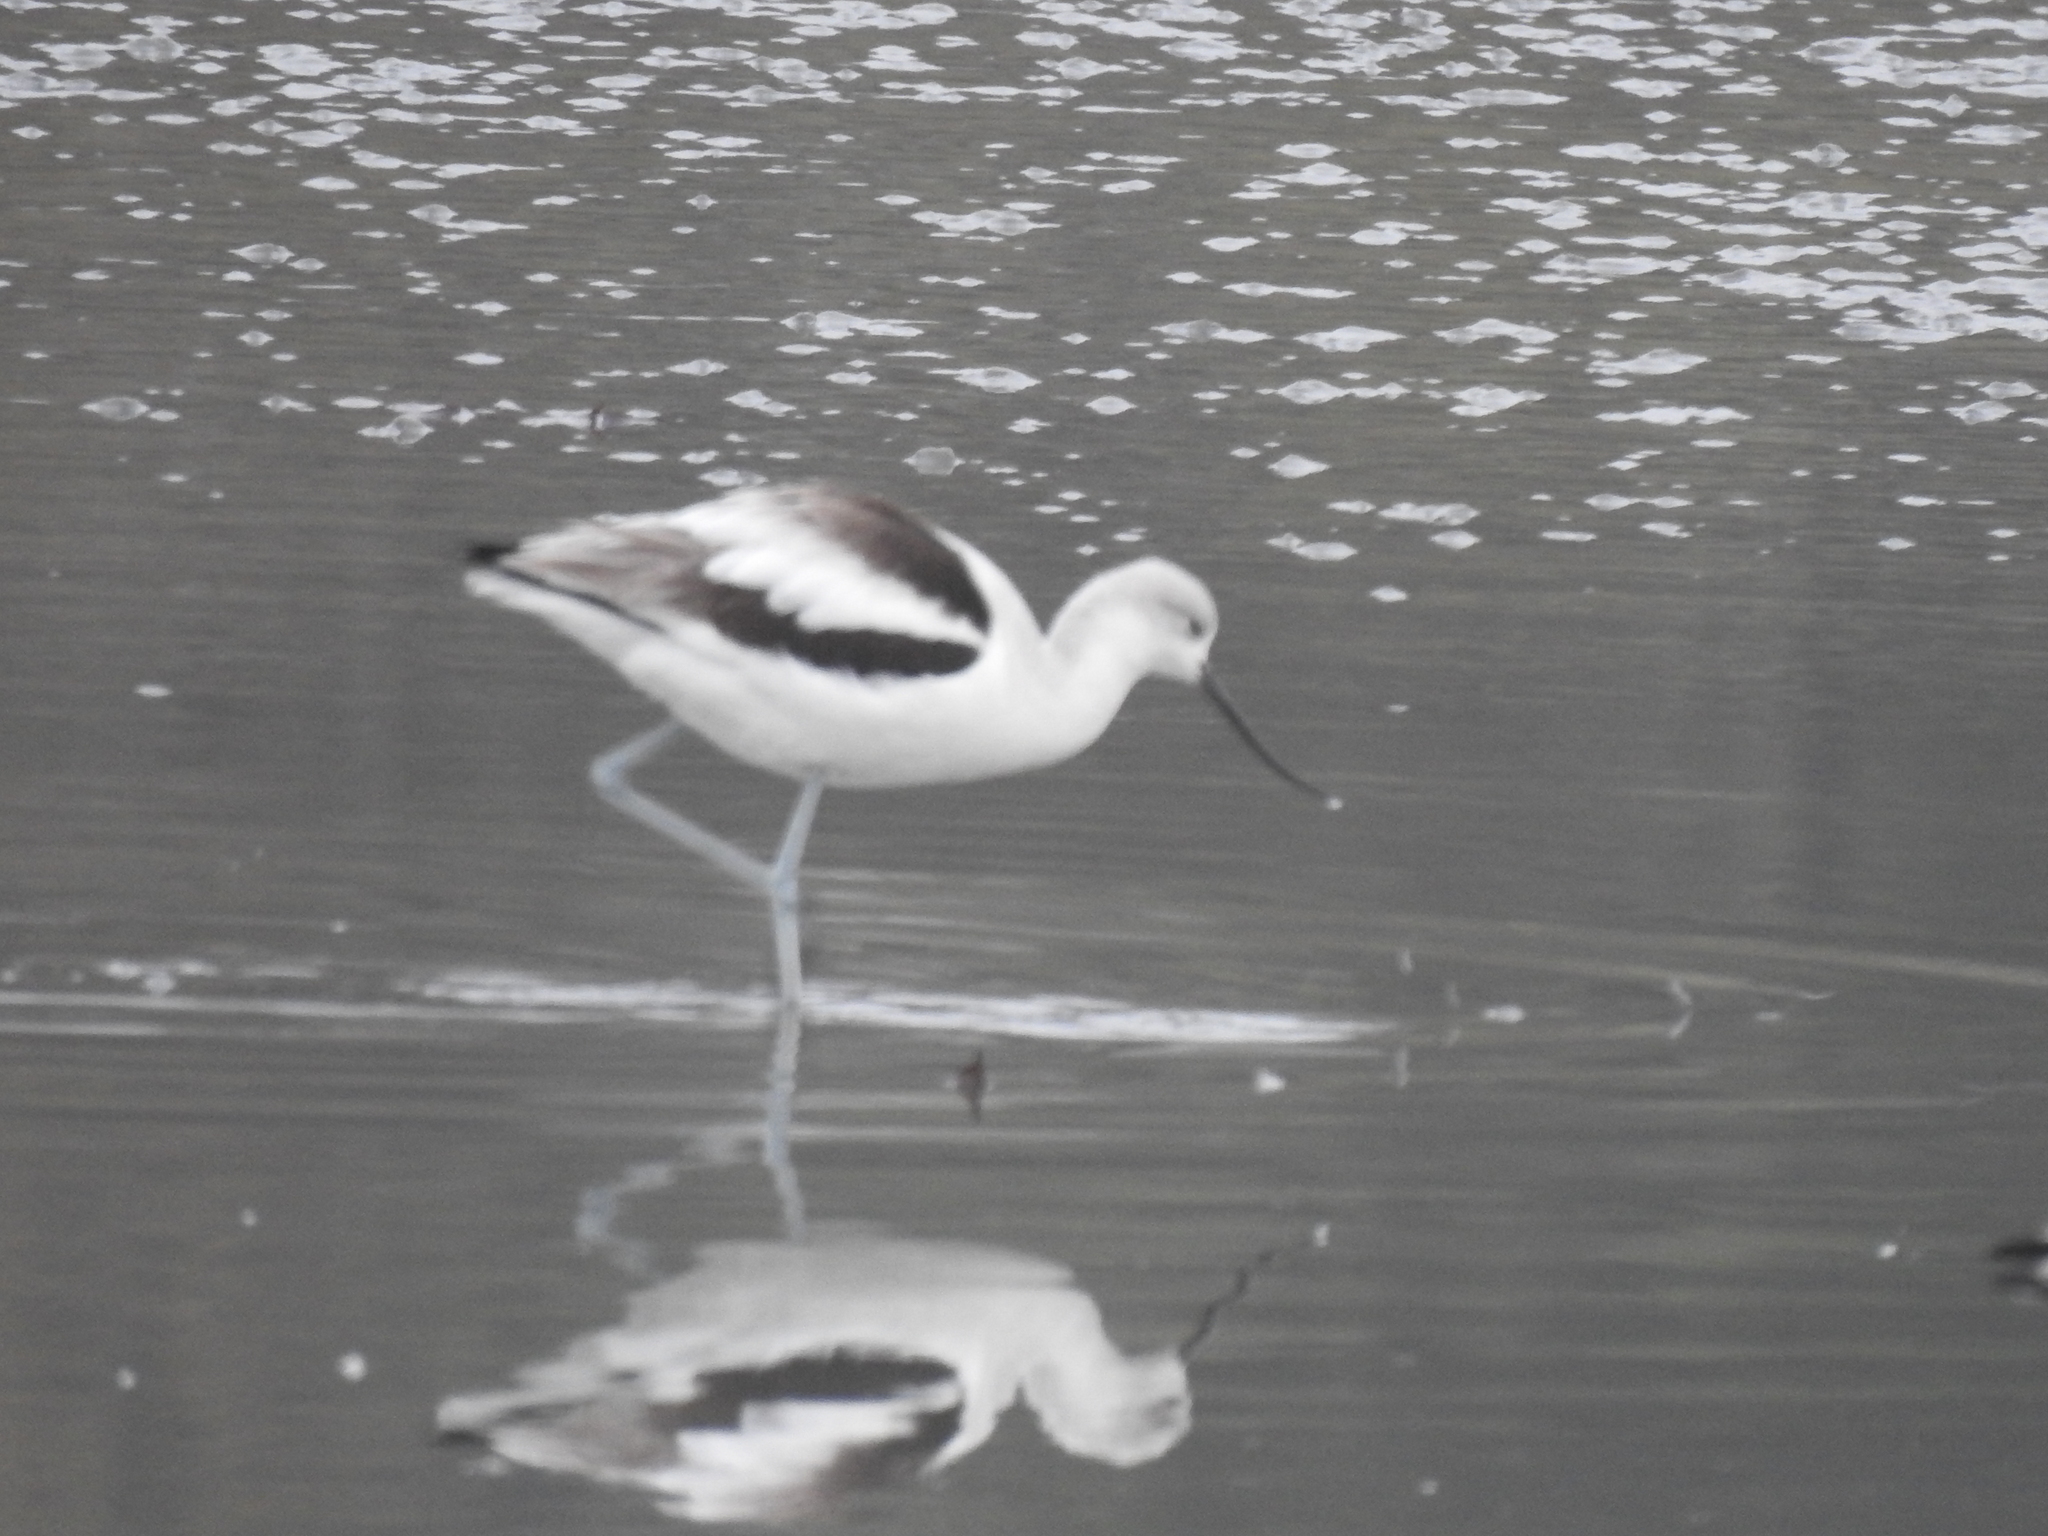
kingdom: Animalia
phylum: Chordata
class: Aves
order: Charadriiformes
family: Recurvirostridae
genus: Recurvirostra
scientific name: Recurvirostra americana
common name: American avocet
